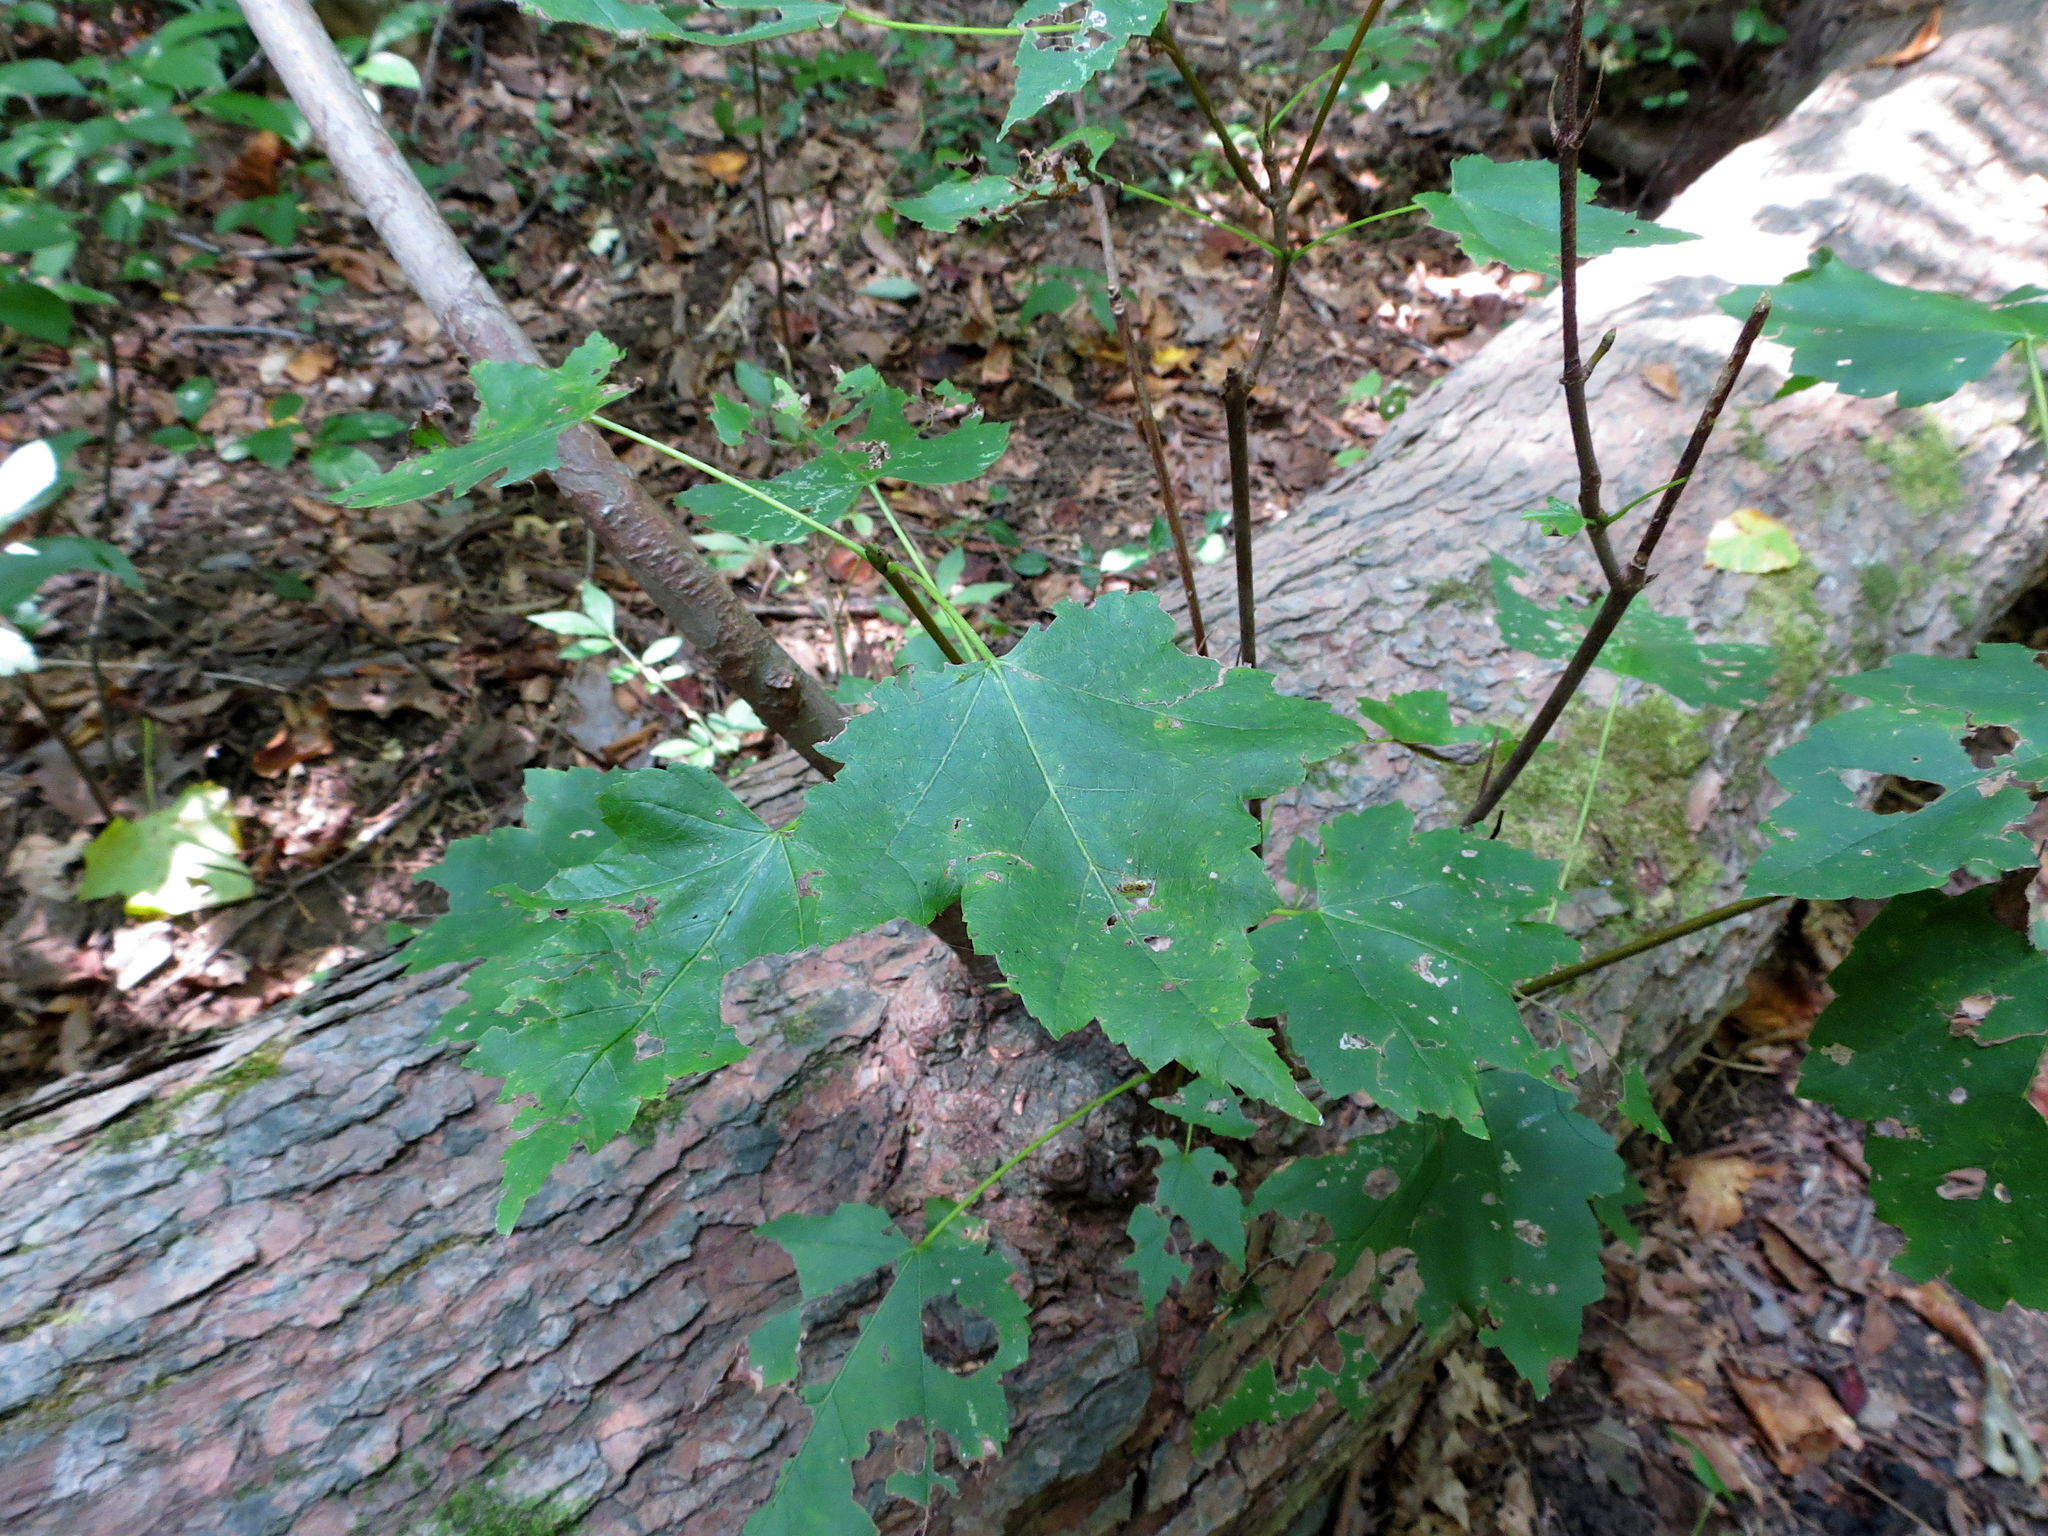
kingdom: Plantae
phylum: Tracheophyta
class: Magnoliopsida
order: Sapindales
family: Sapindaceae
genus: Acer
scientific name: Acer rubrum
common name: Red maple
